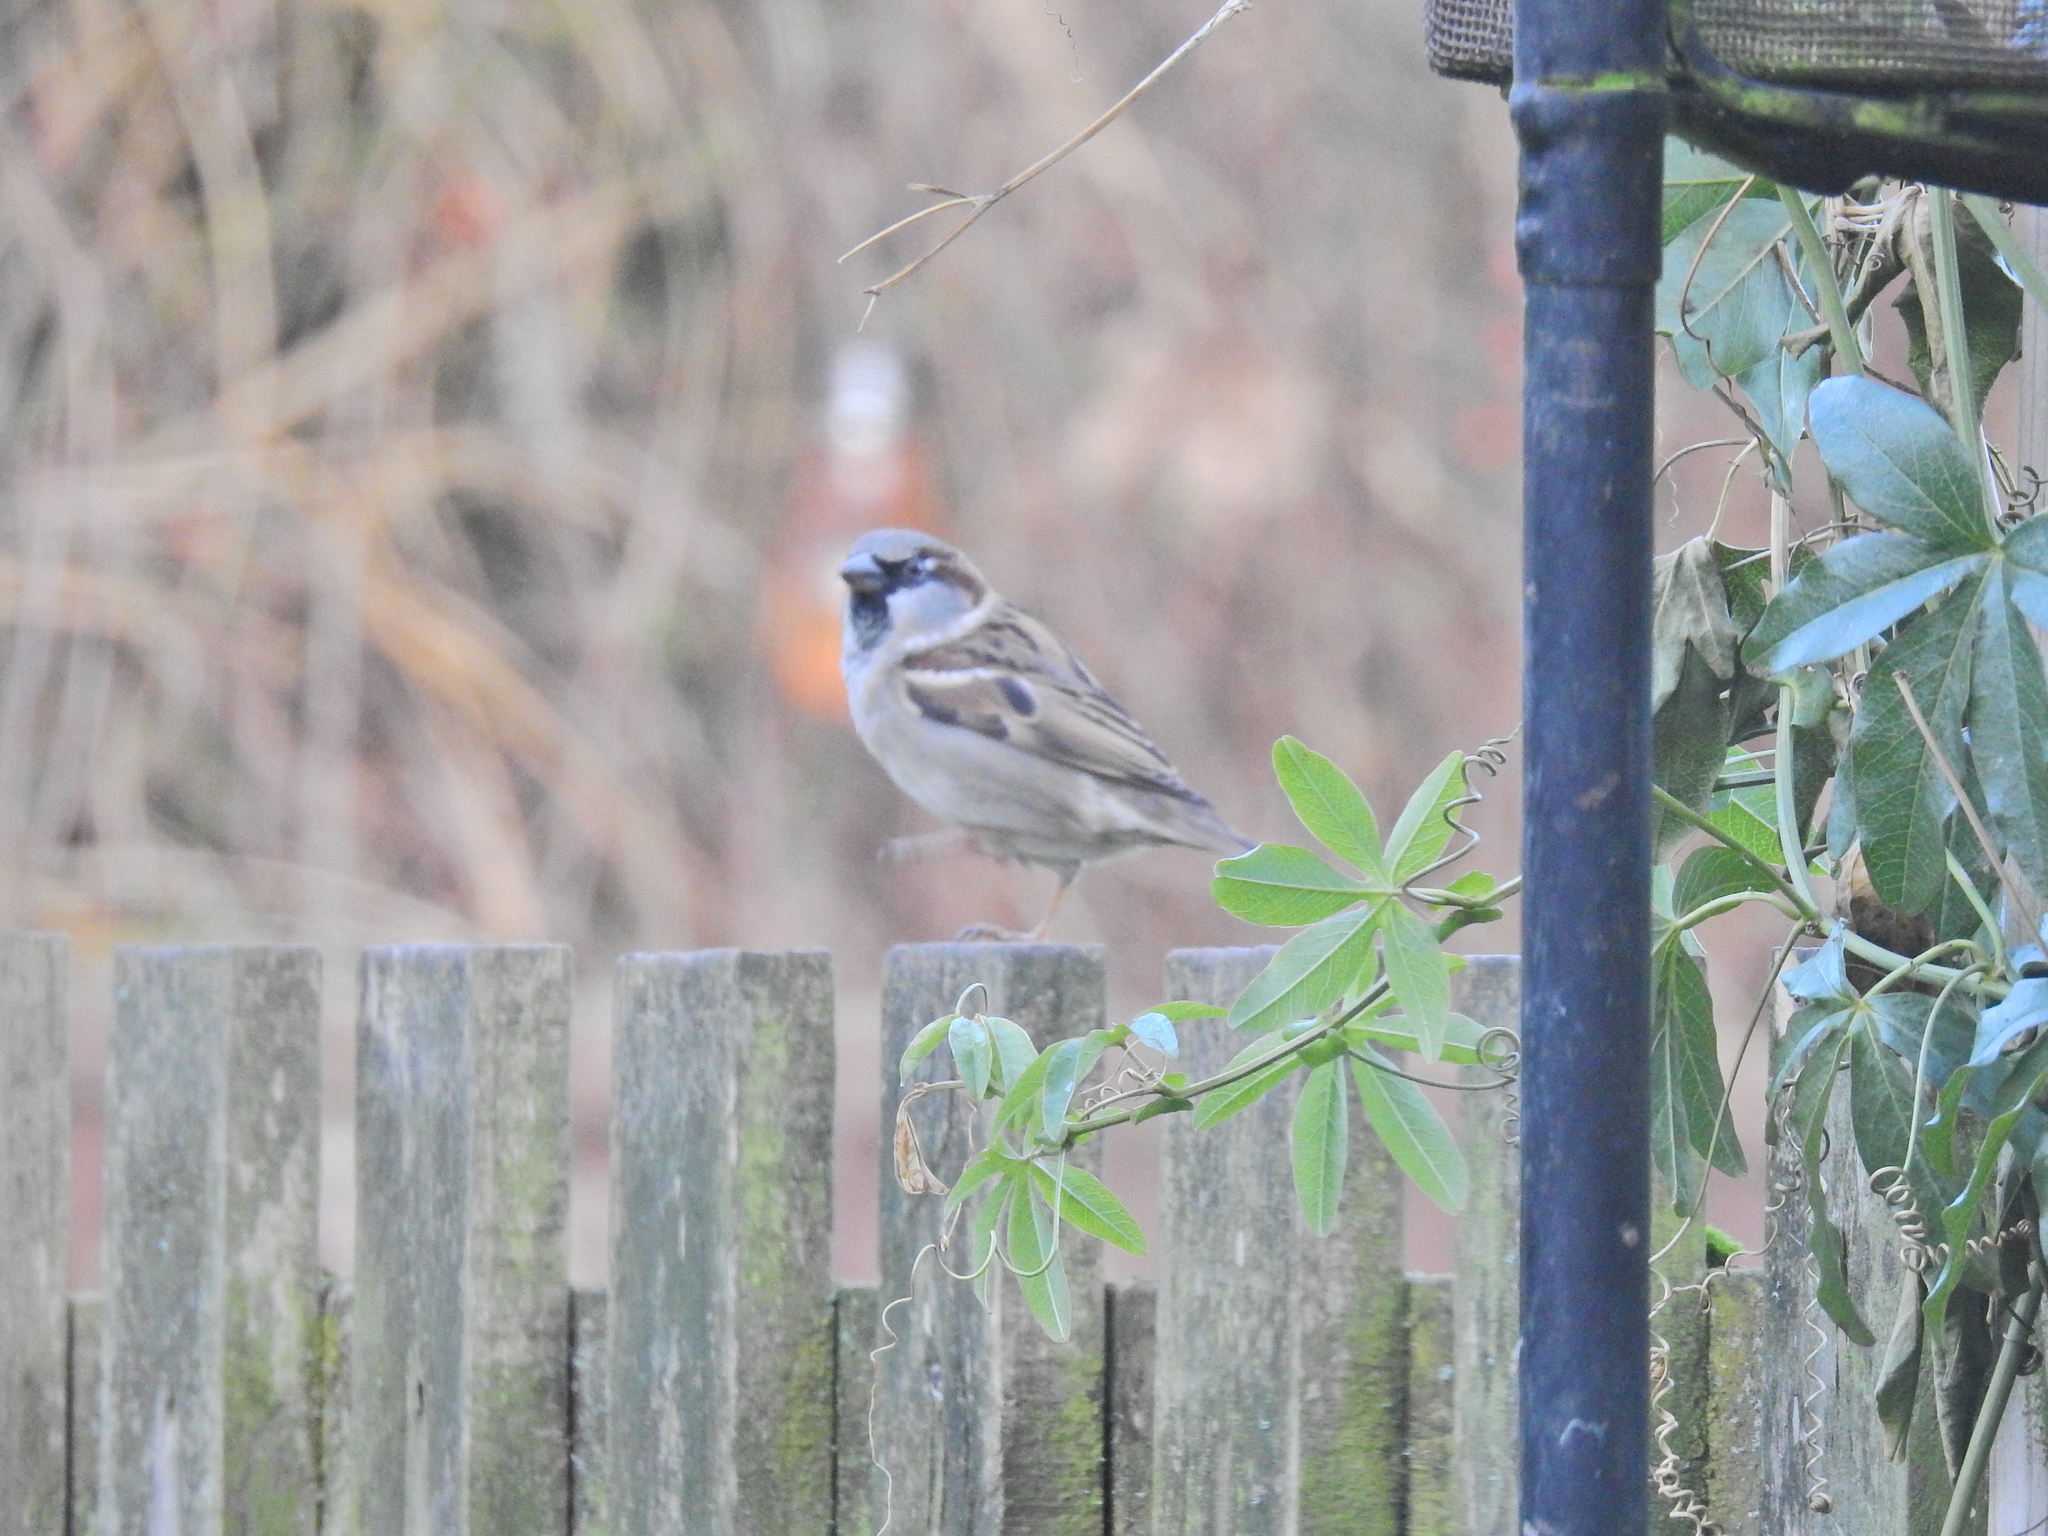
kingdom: Animalia
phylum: Chordata
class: Aves
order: Passeriformes
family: Passeridae
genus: Passer
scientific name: Passer domesticus
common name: House sparrow
